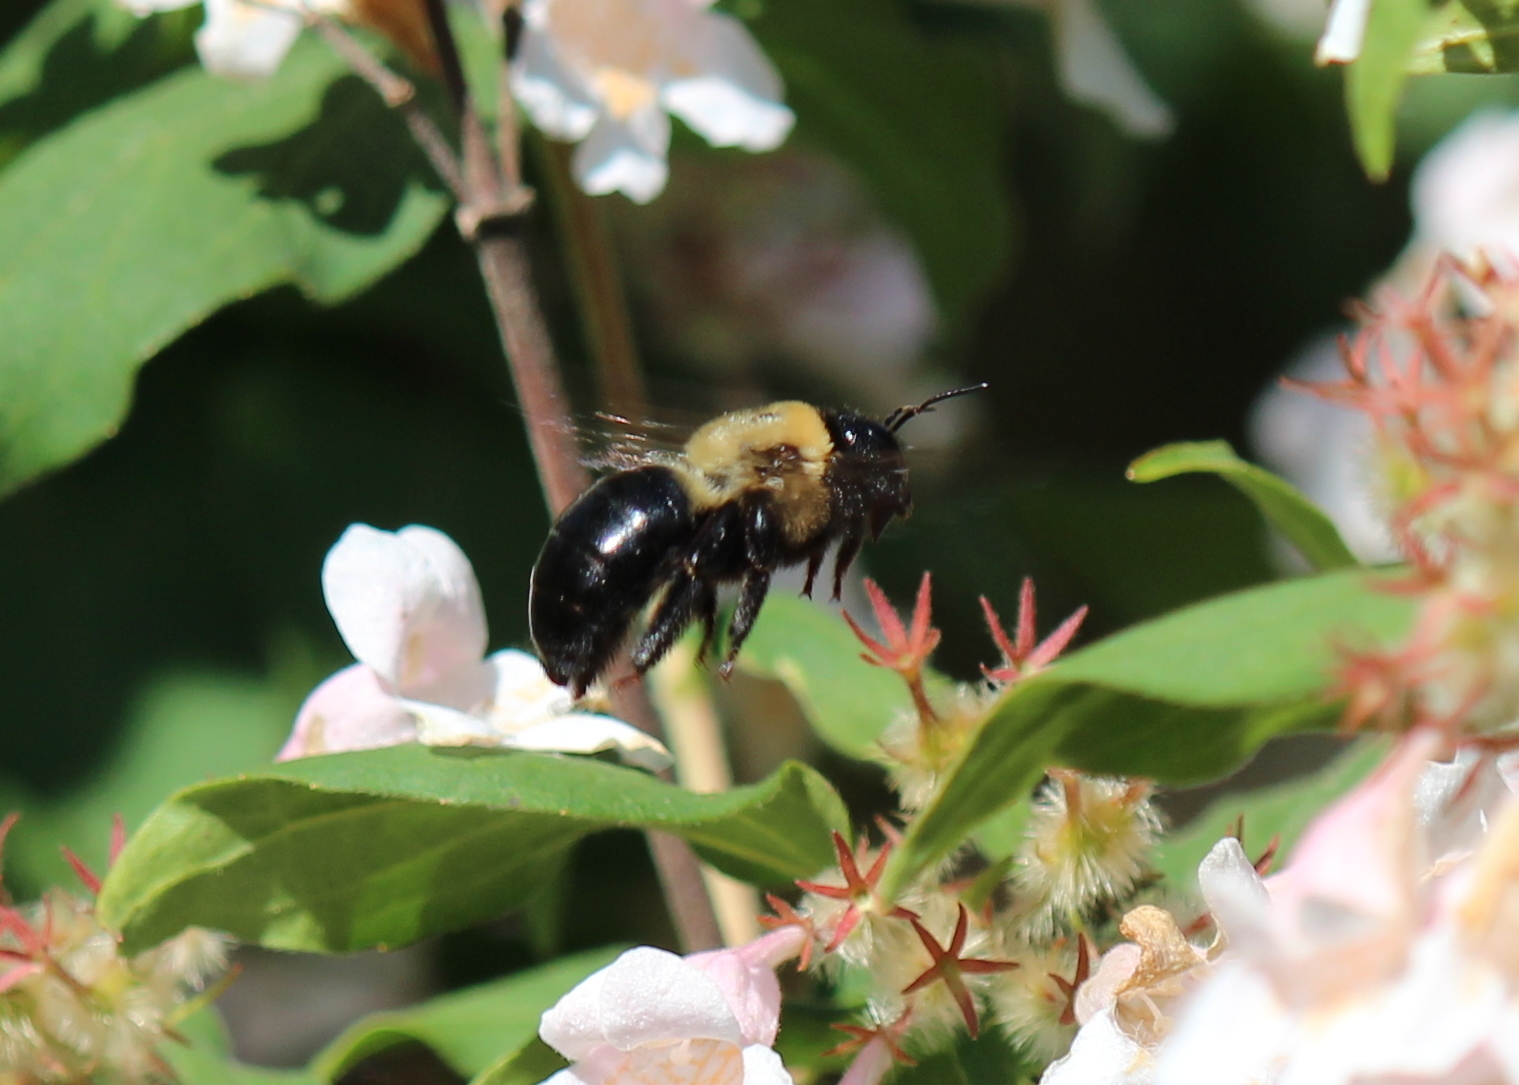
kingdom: Animalia
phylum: Arthropoda
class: Insecta
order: Hymenoptera
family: Apidae
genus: Xylocopa
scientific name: Xylocopa virginica
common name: Carpenter bee
